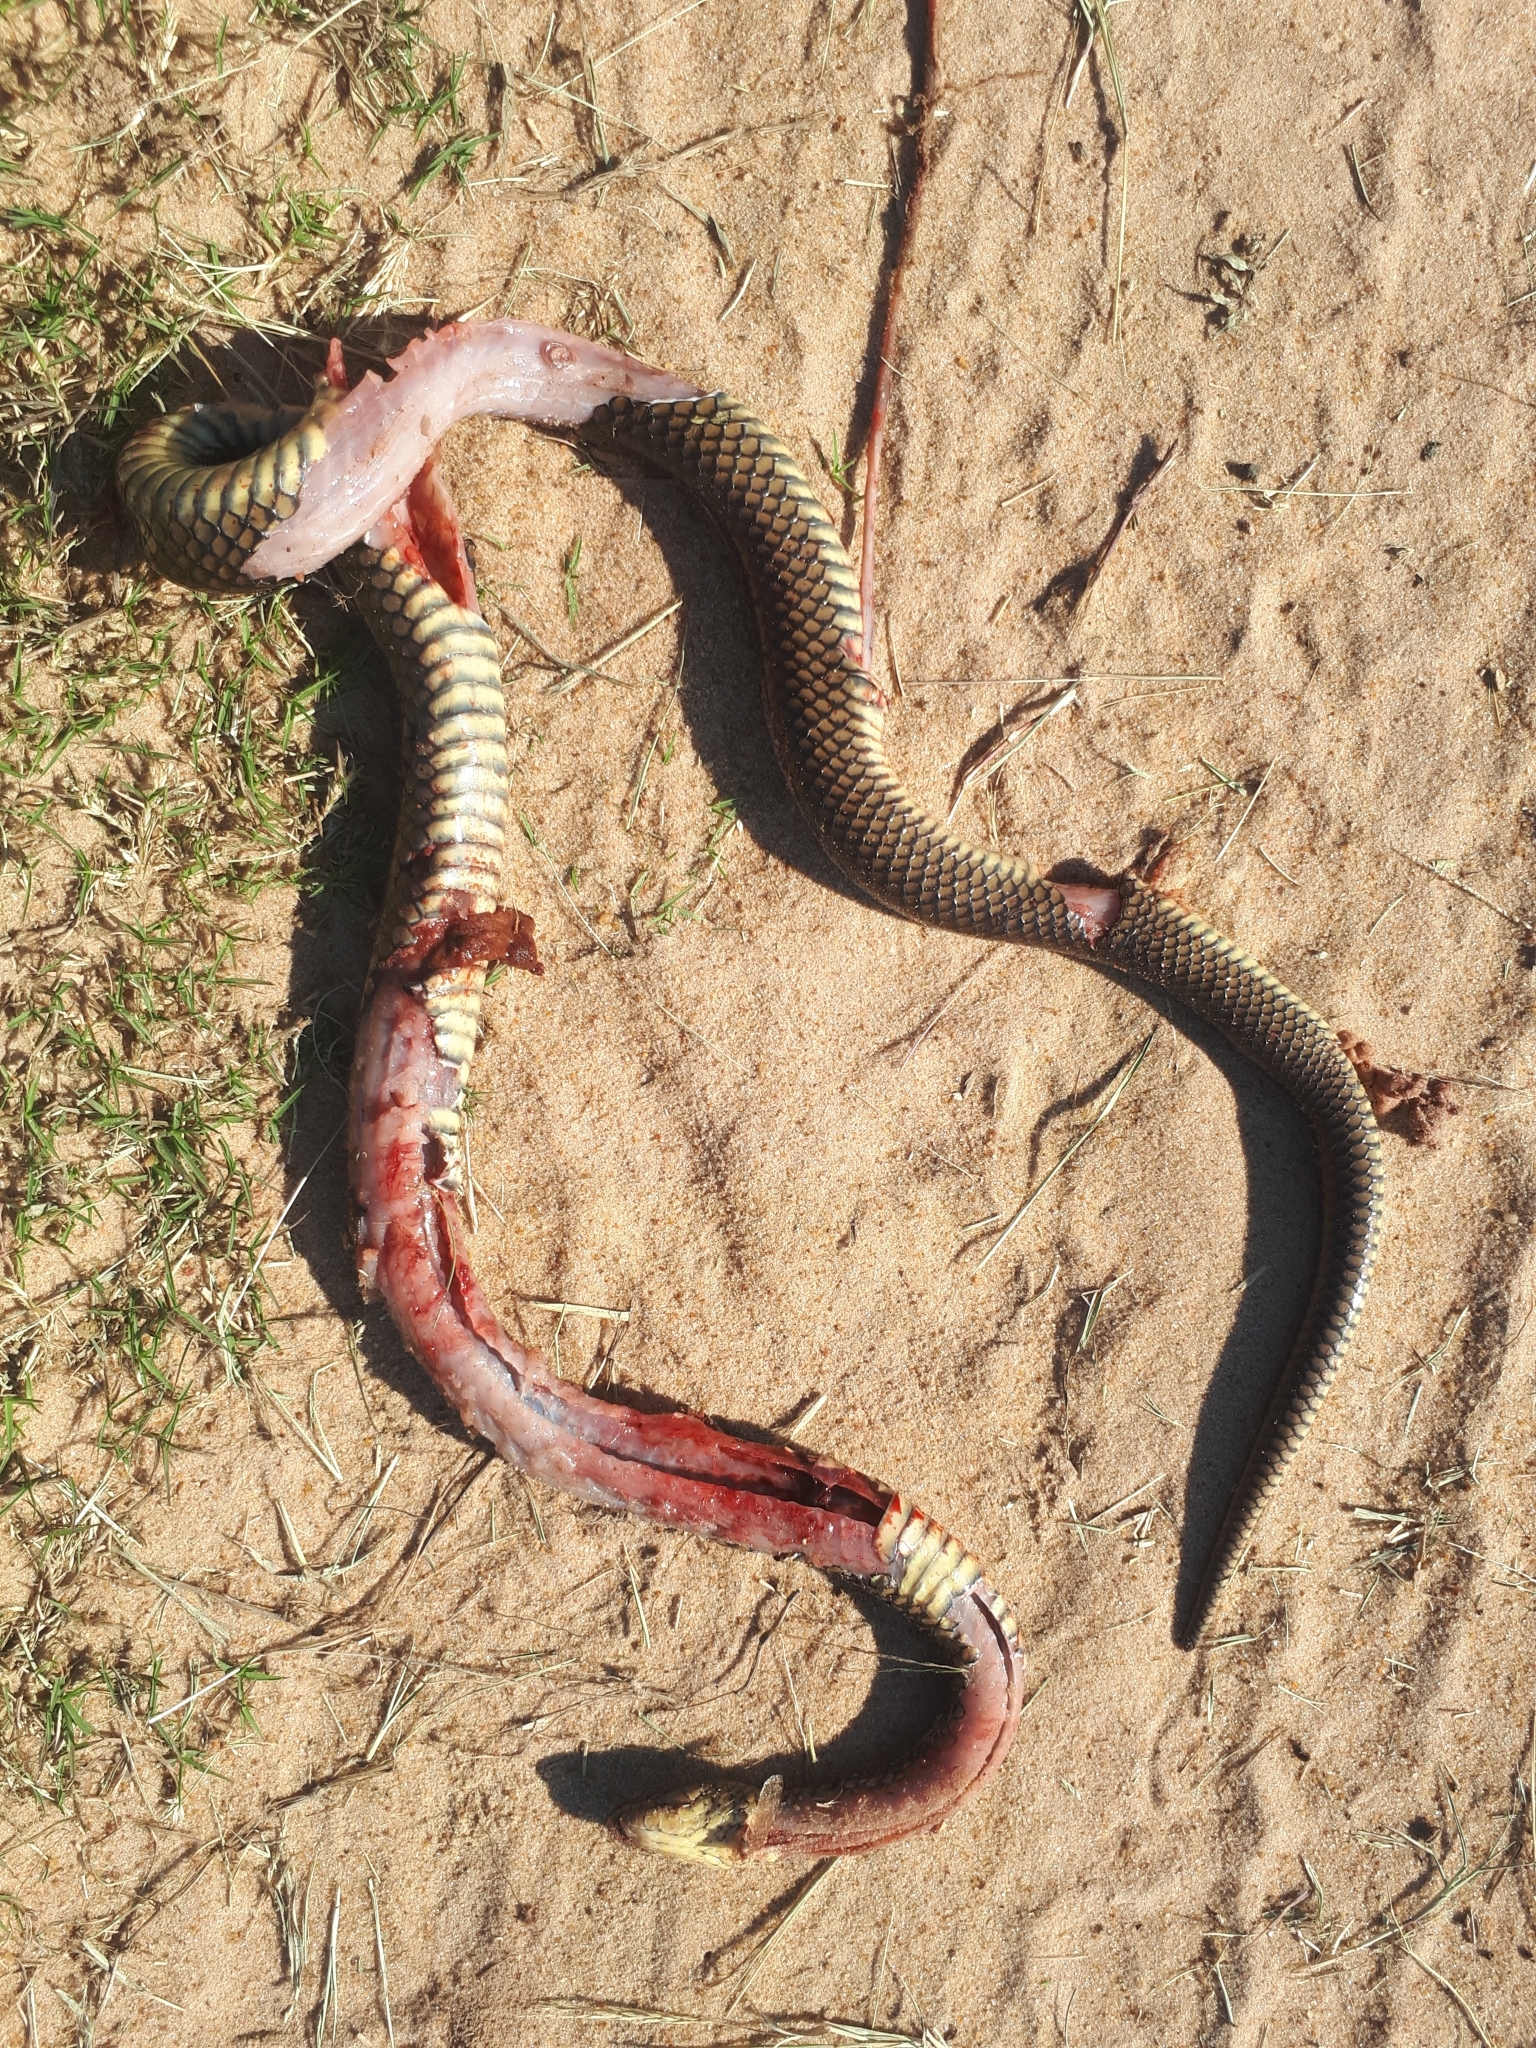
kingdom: Animalia
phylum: Chordata
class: Squamata
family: Colubridae
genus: Erythrolamprus
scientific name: Erythrolamprus semiaureus
